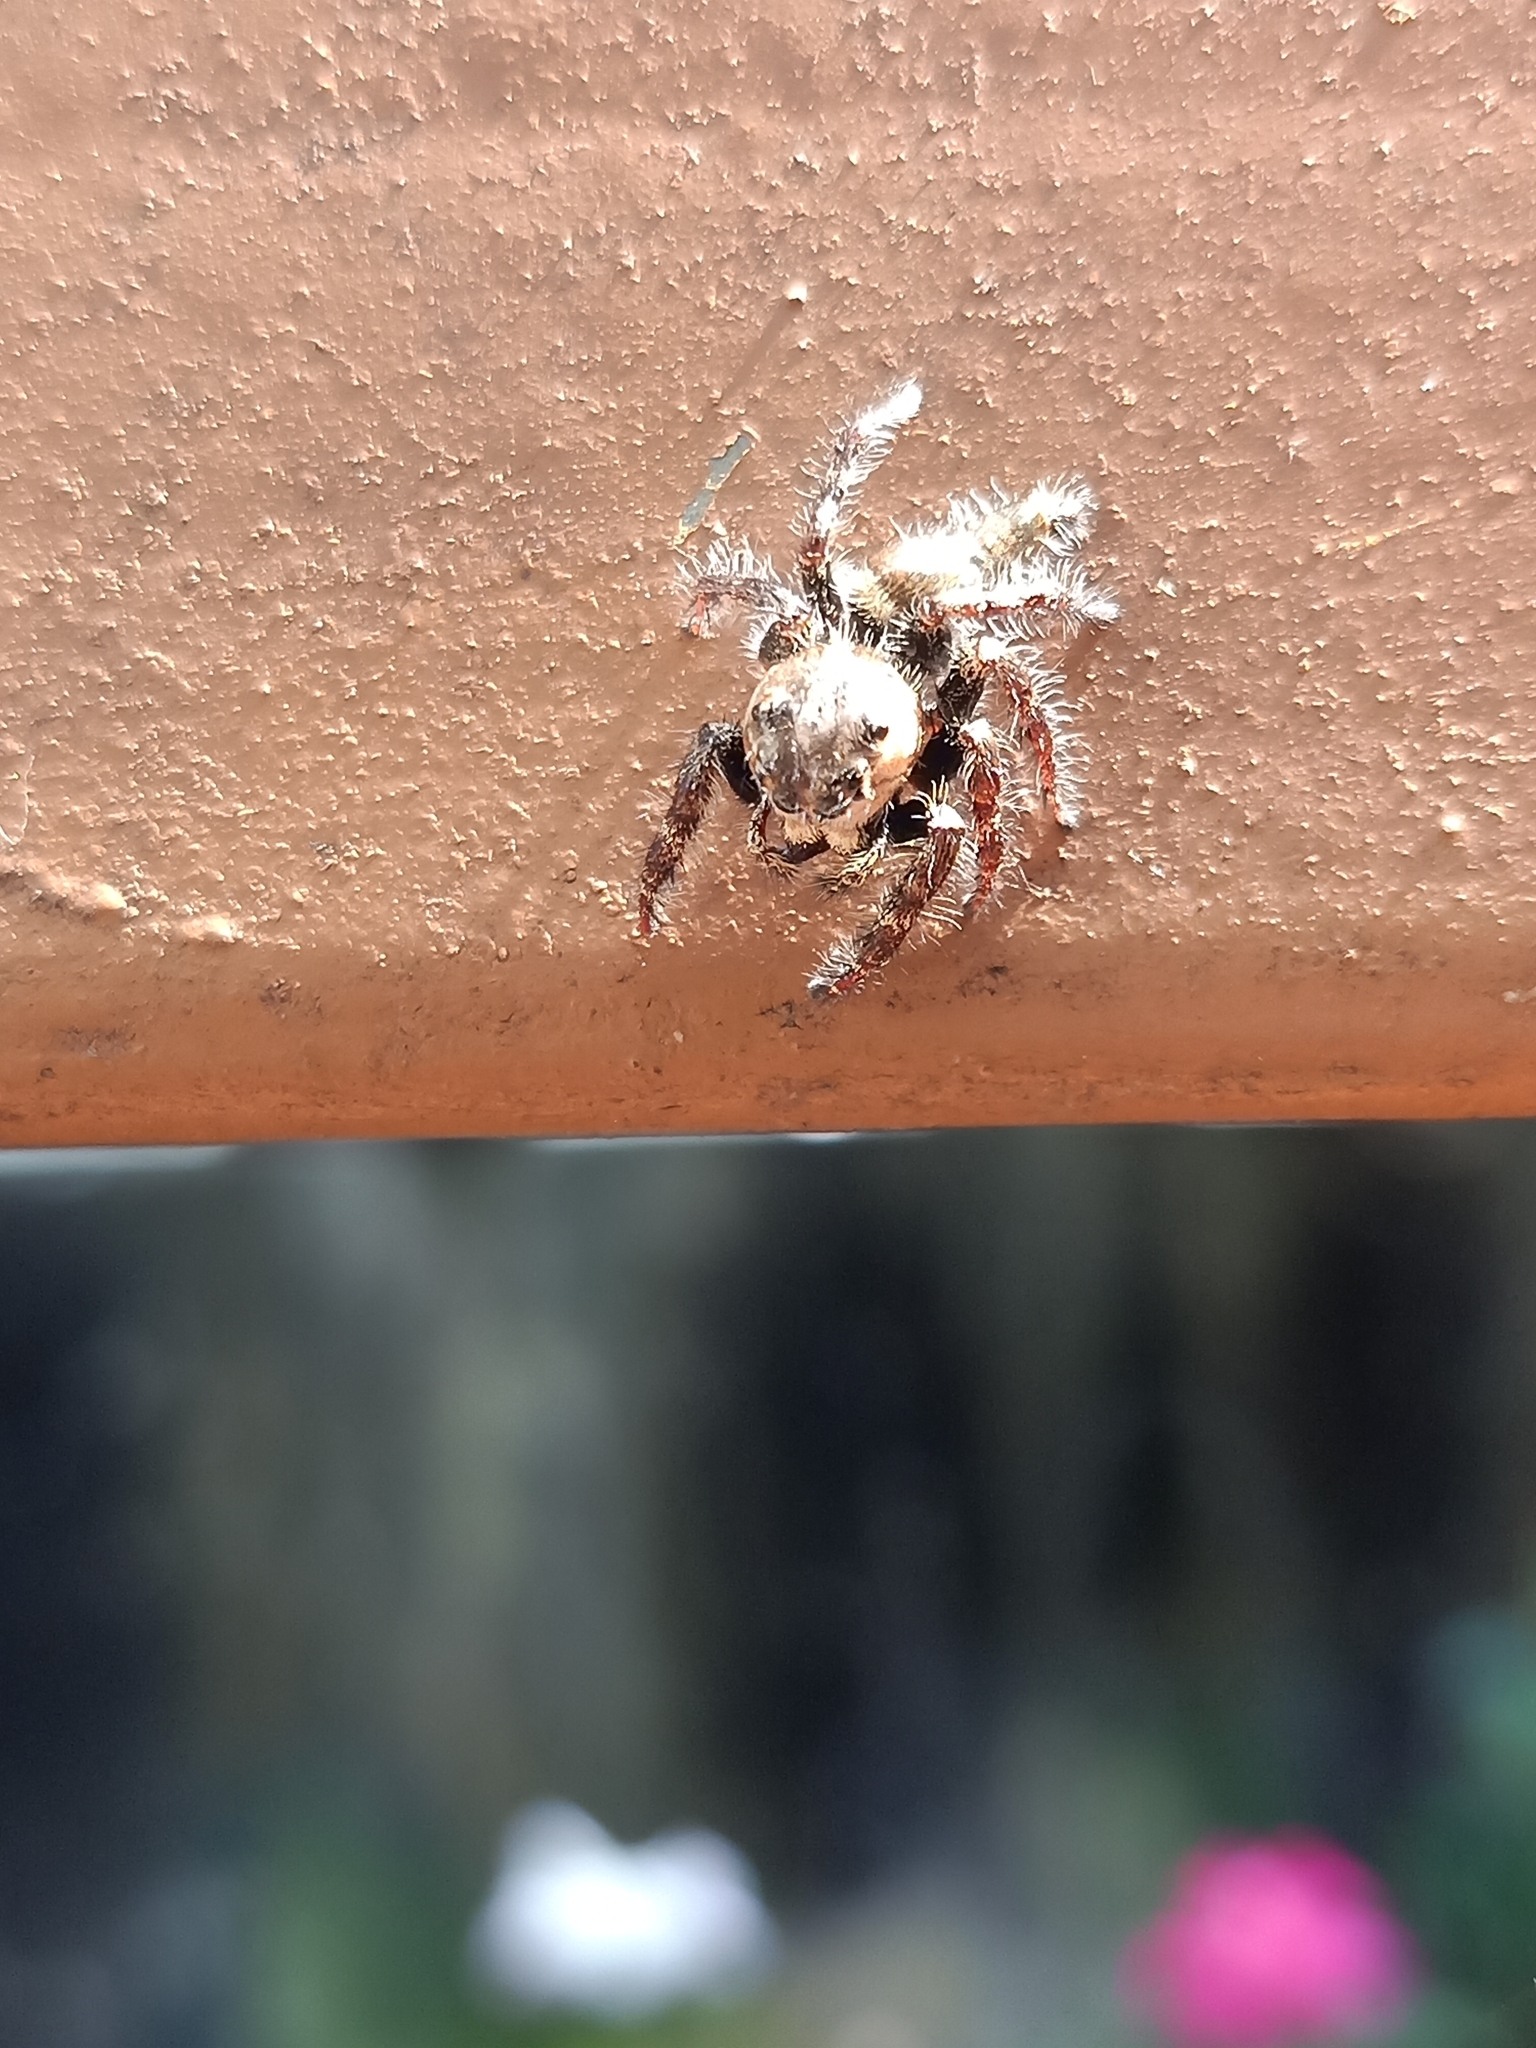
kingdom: Animalia
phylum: Arthropoda
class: Arachnida
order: Araneae
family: Salticidae
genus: Hyllus
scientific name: Hyllus semicupreus
